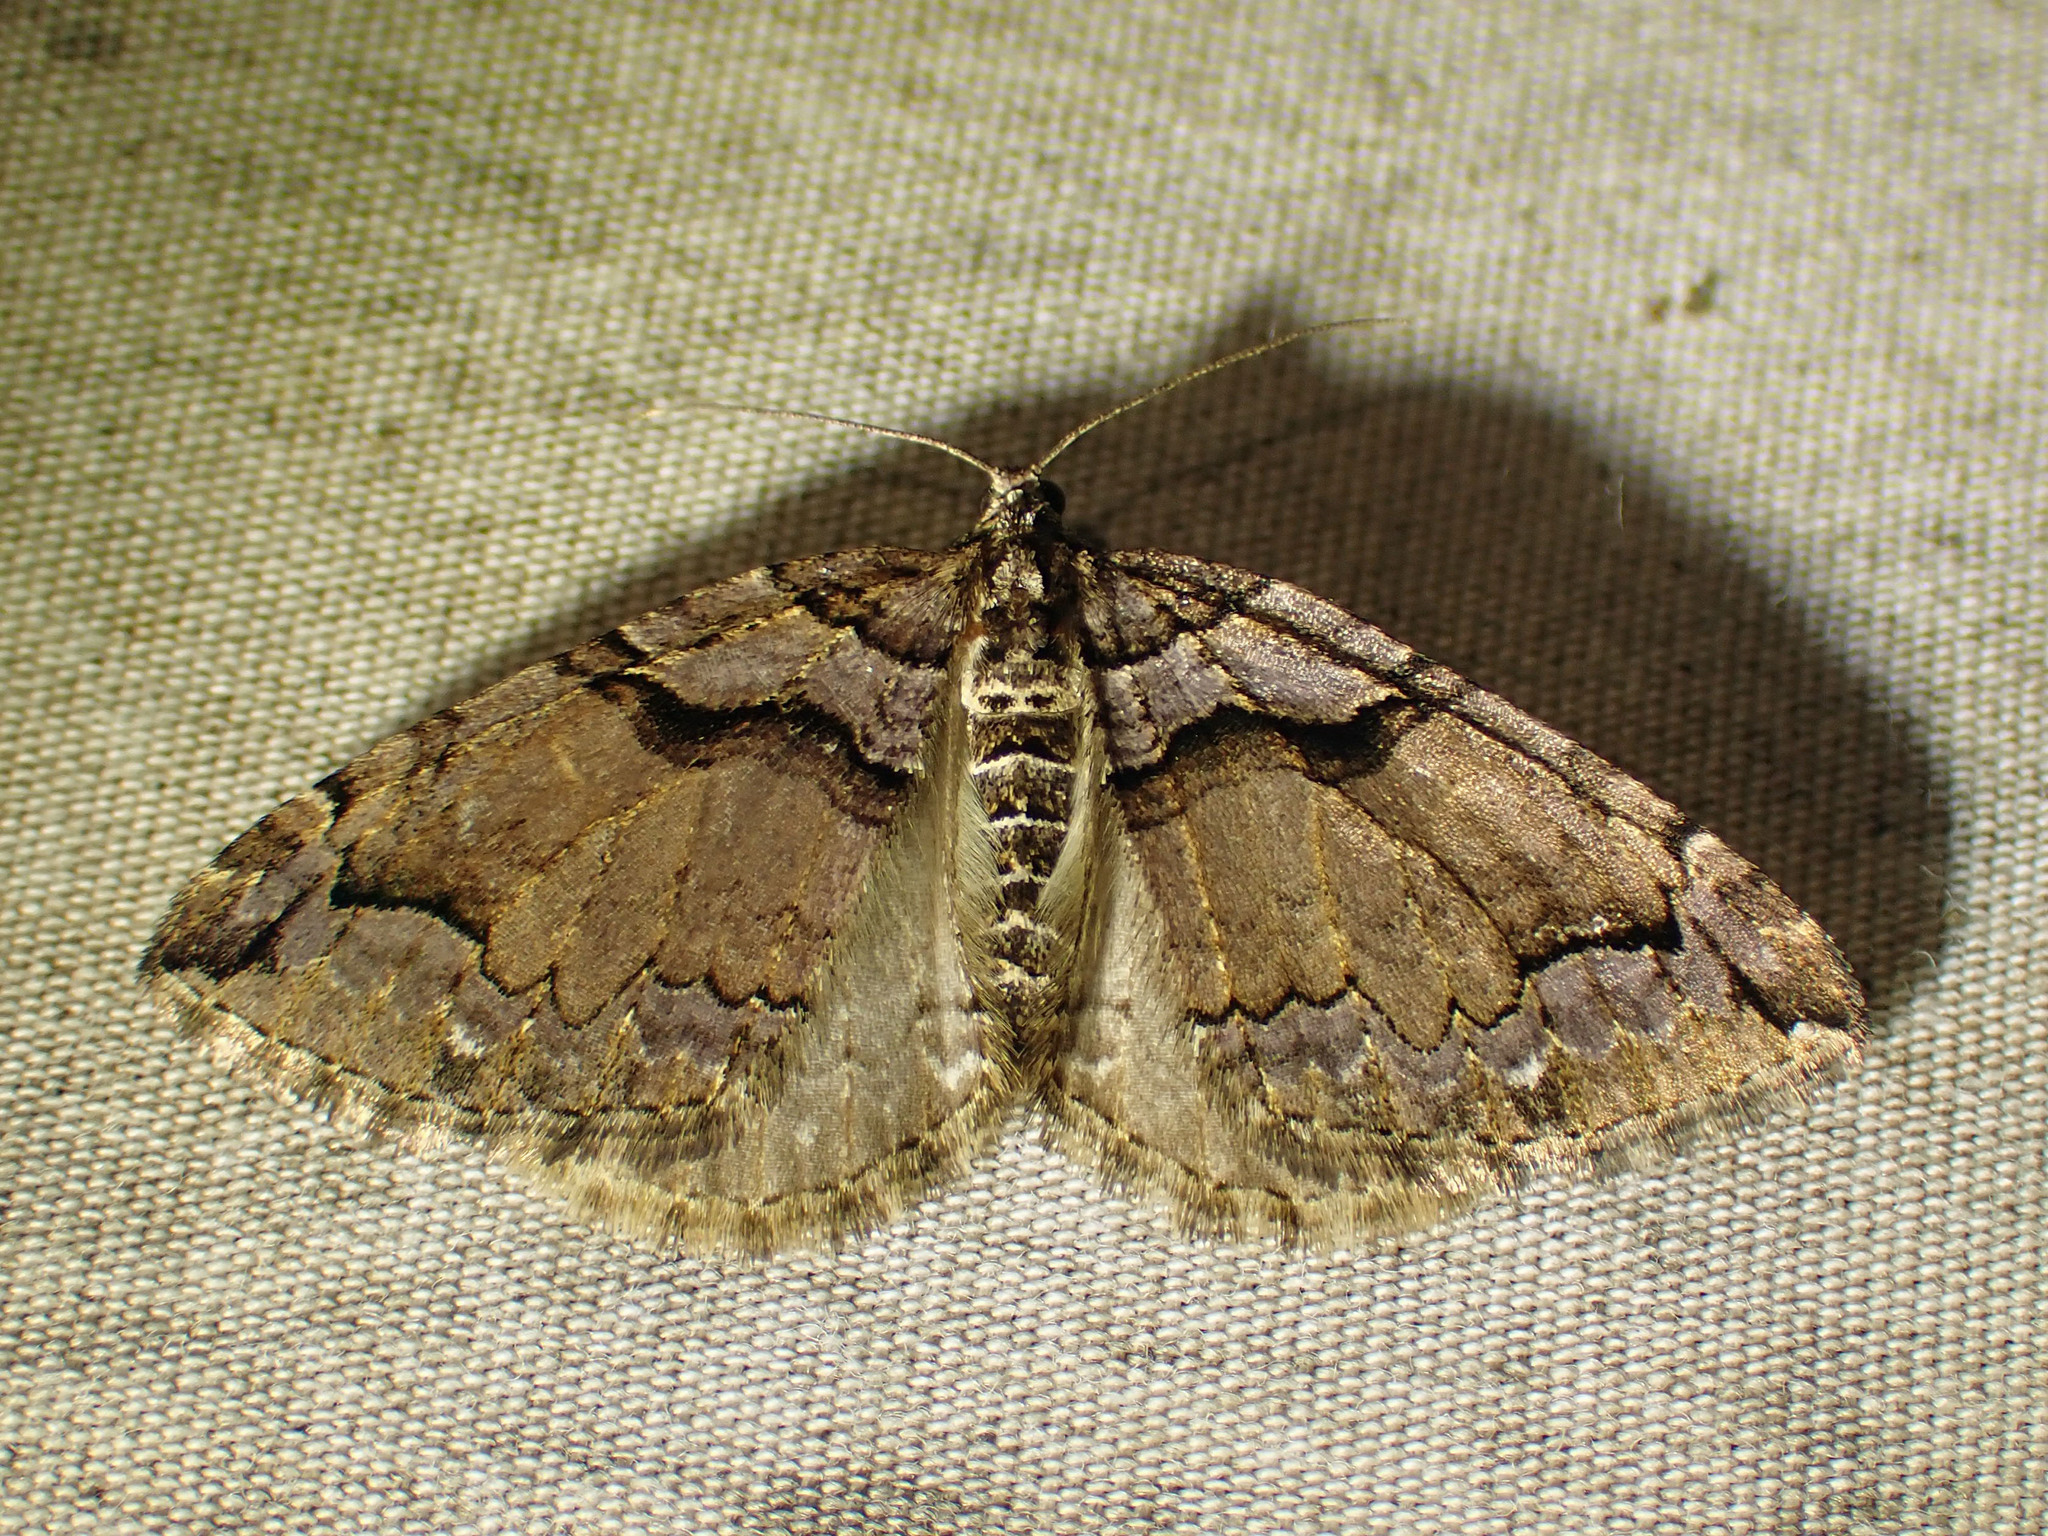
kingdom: Animalia
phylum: Arthropoda
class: Insecta
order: Lepidoptera
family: Geometridae
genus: Anticlea
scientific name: Anticlea vasiliata
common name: Variable carpet
